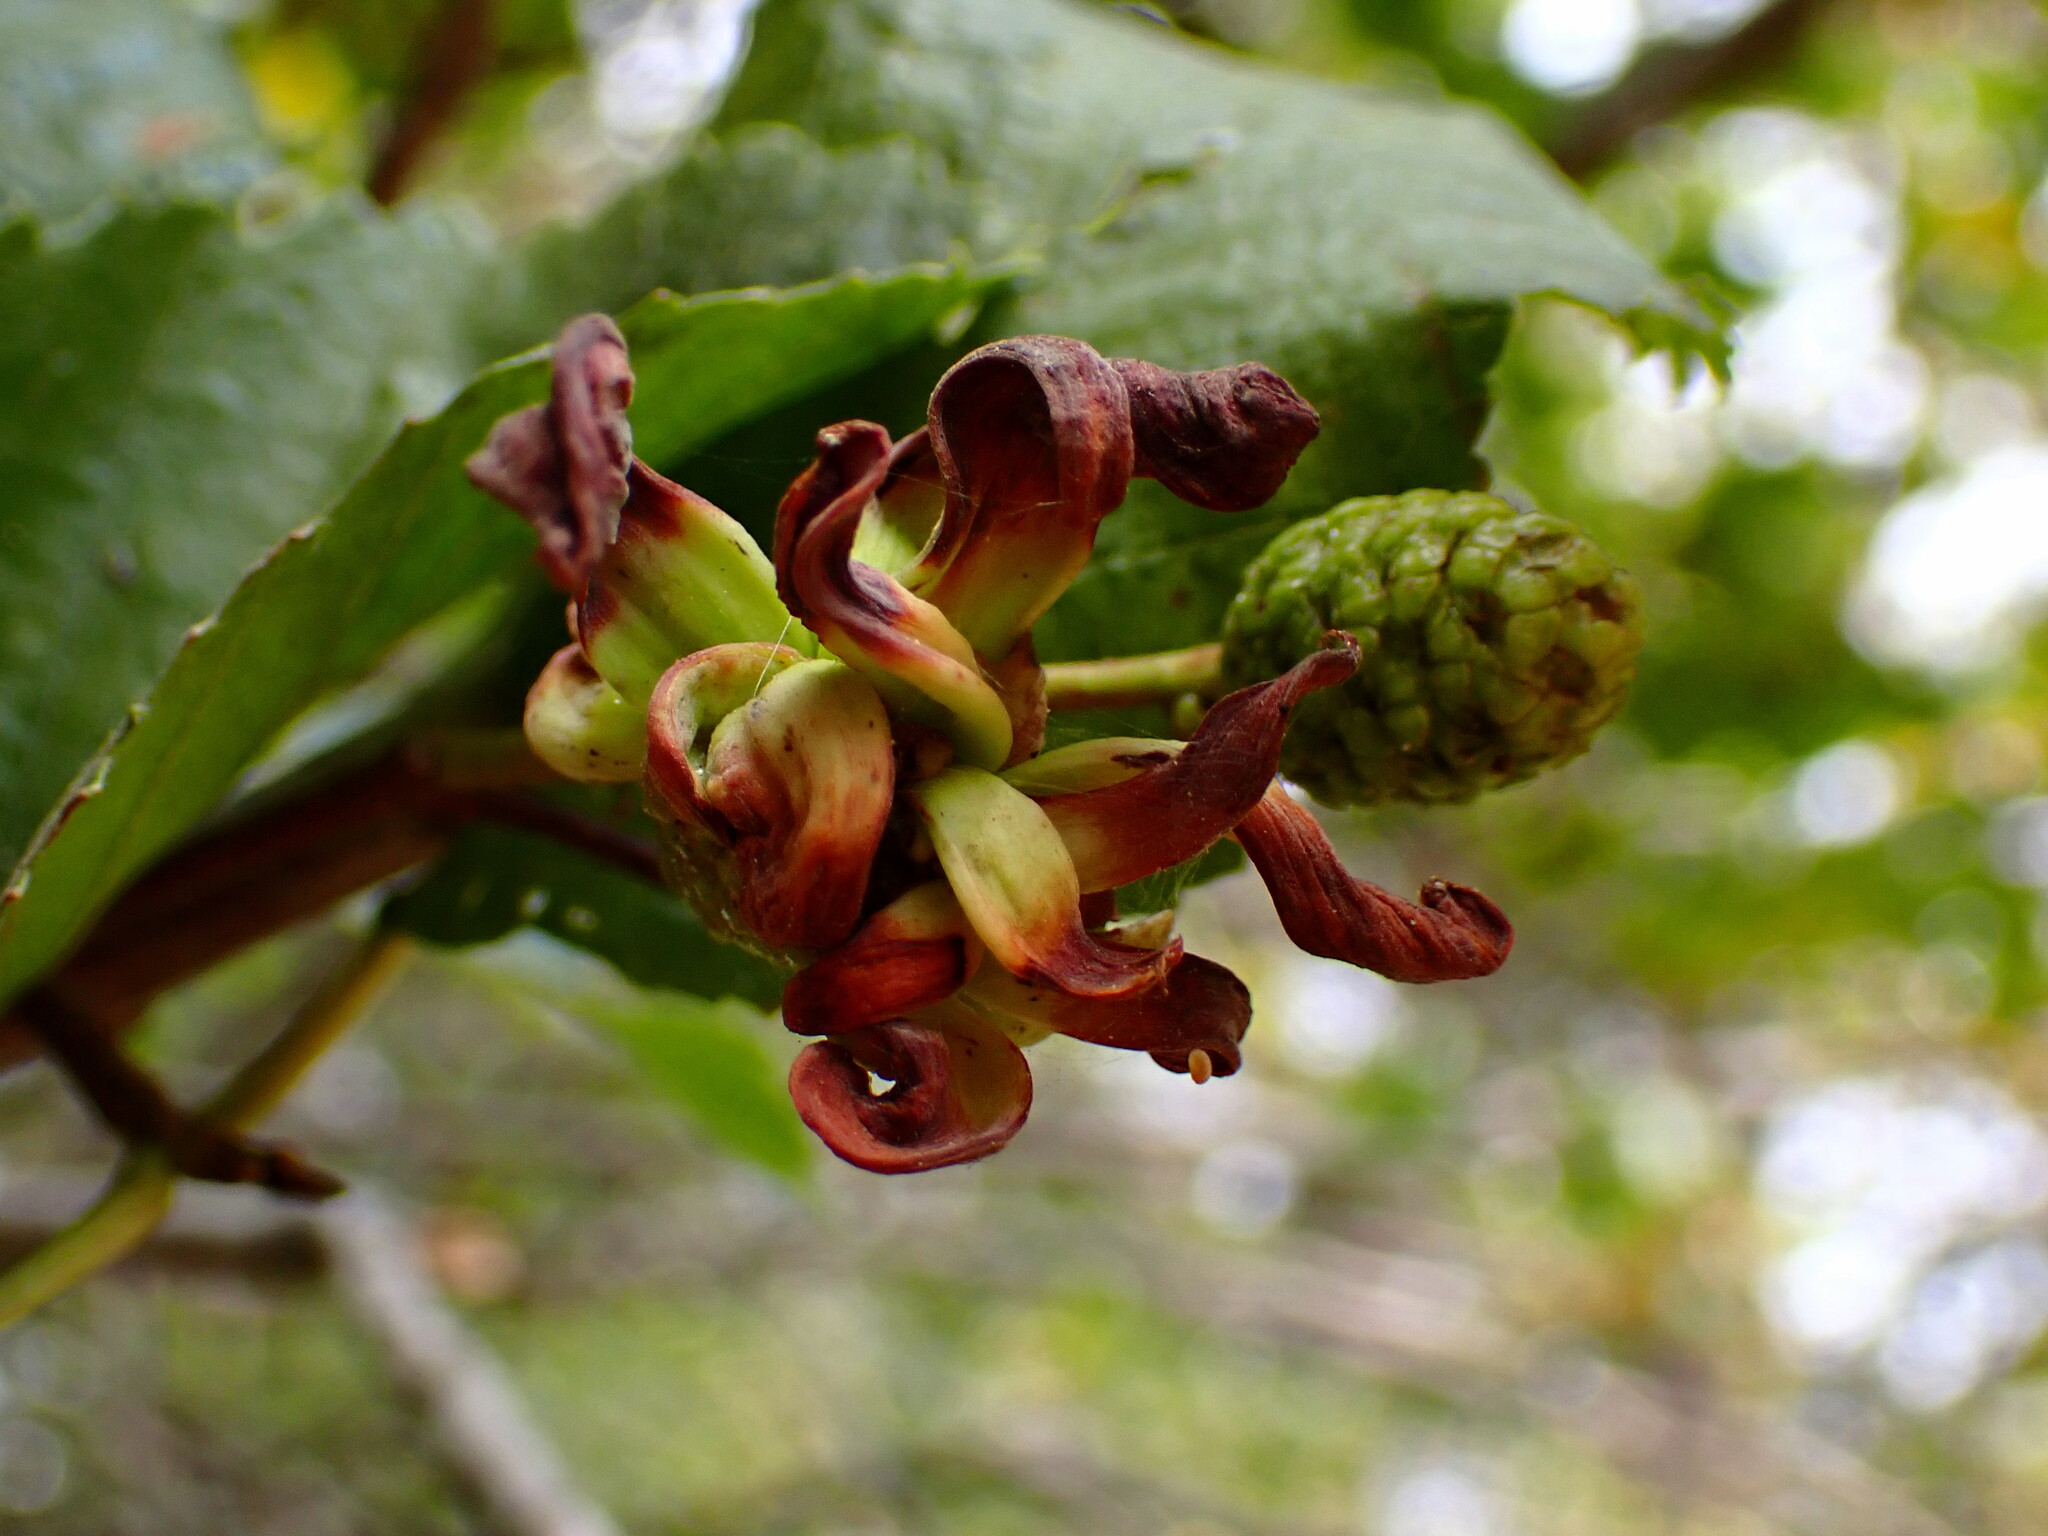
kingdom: Fungi
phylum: Ascomycota
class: Taphrinomycetes
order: Taphrinales
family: Taphrinaceae
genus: Taphrina
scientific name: Taphrina occidentalis
